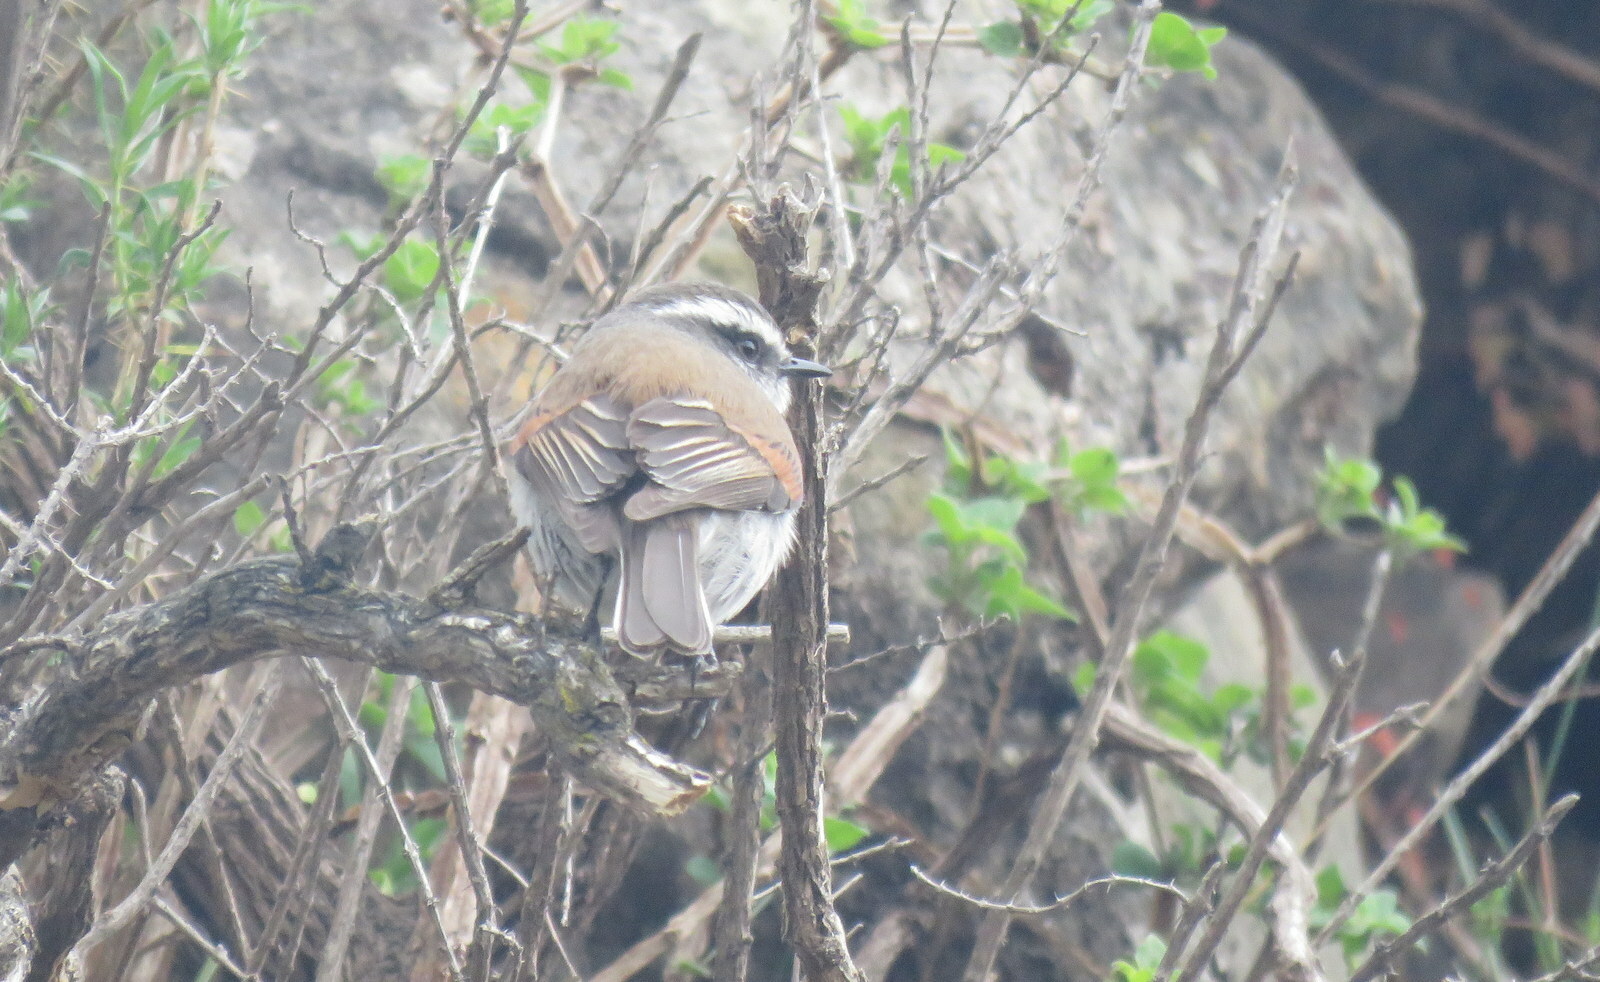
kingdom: Animalia
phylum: Chordata
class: Aves
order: Passeriformes
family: Tyrannidae
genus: Ochthoeca
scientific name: Ochthoeca leucophrys
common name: White-browed chat-tyrant
